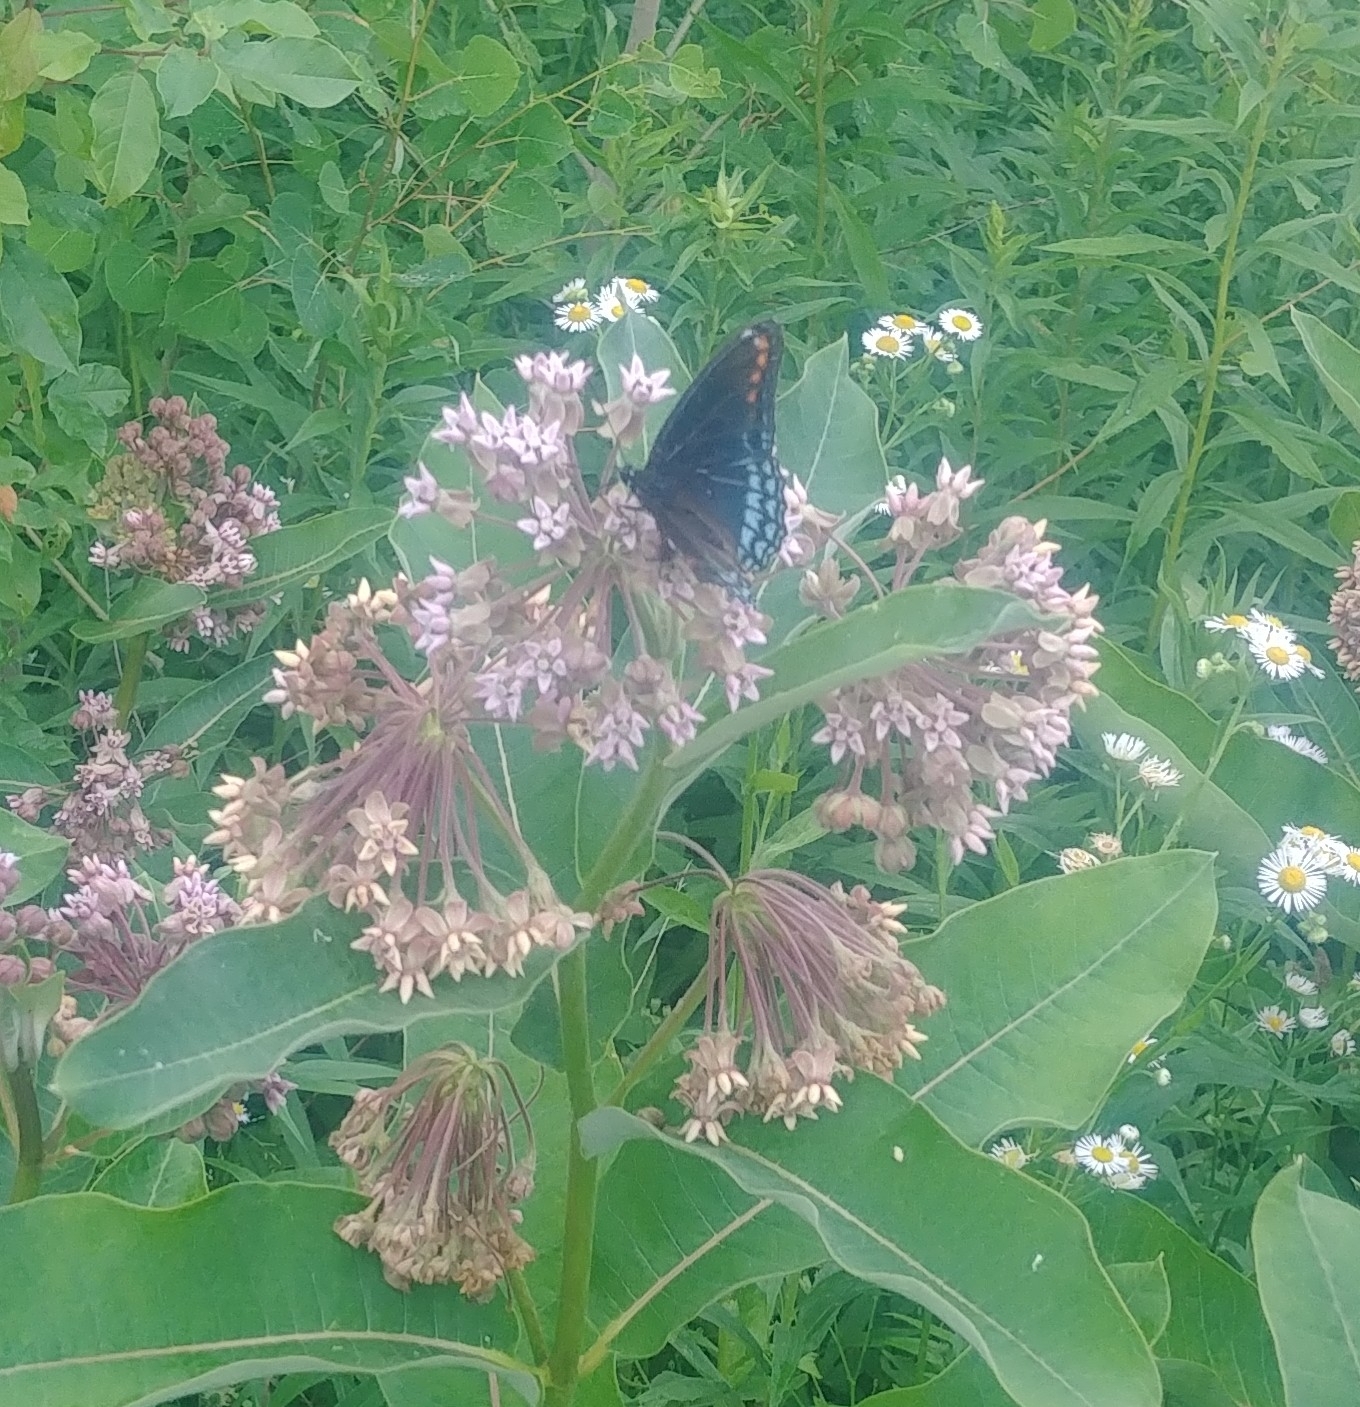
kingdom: Animalia
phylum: Arthropoda
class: Insecta
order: Lepidoptera
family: Nymphalidae
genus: Limenitis
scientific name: Limenitis astyanax
